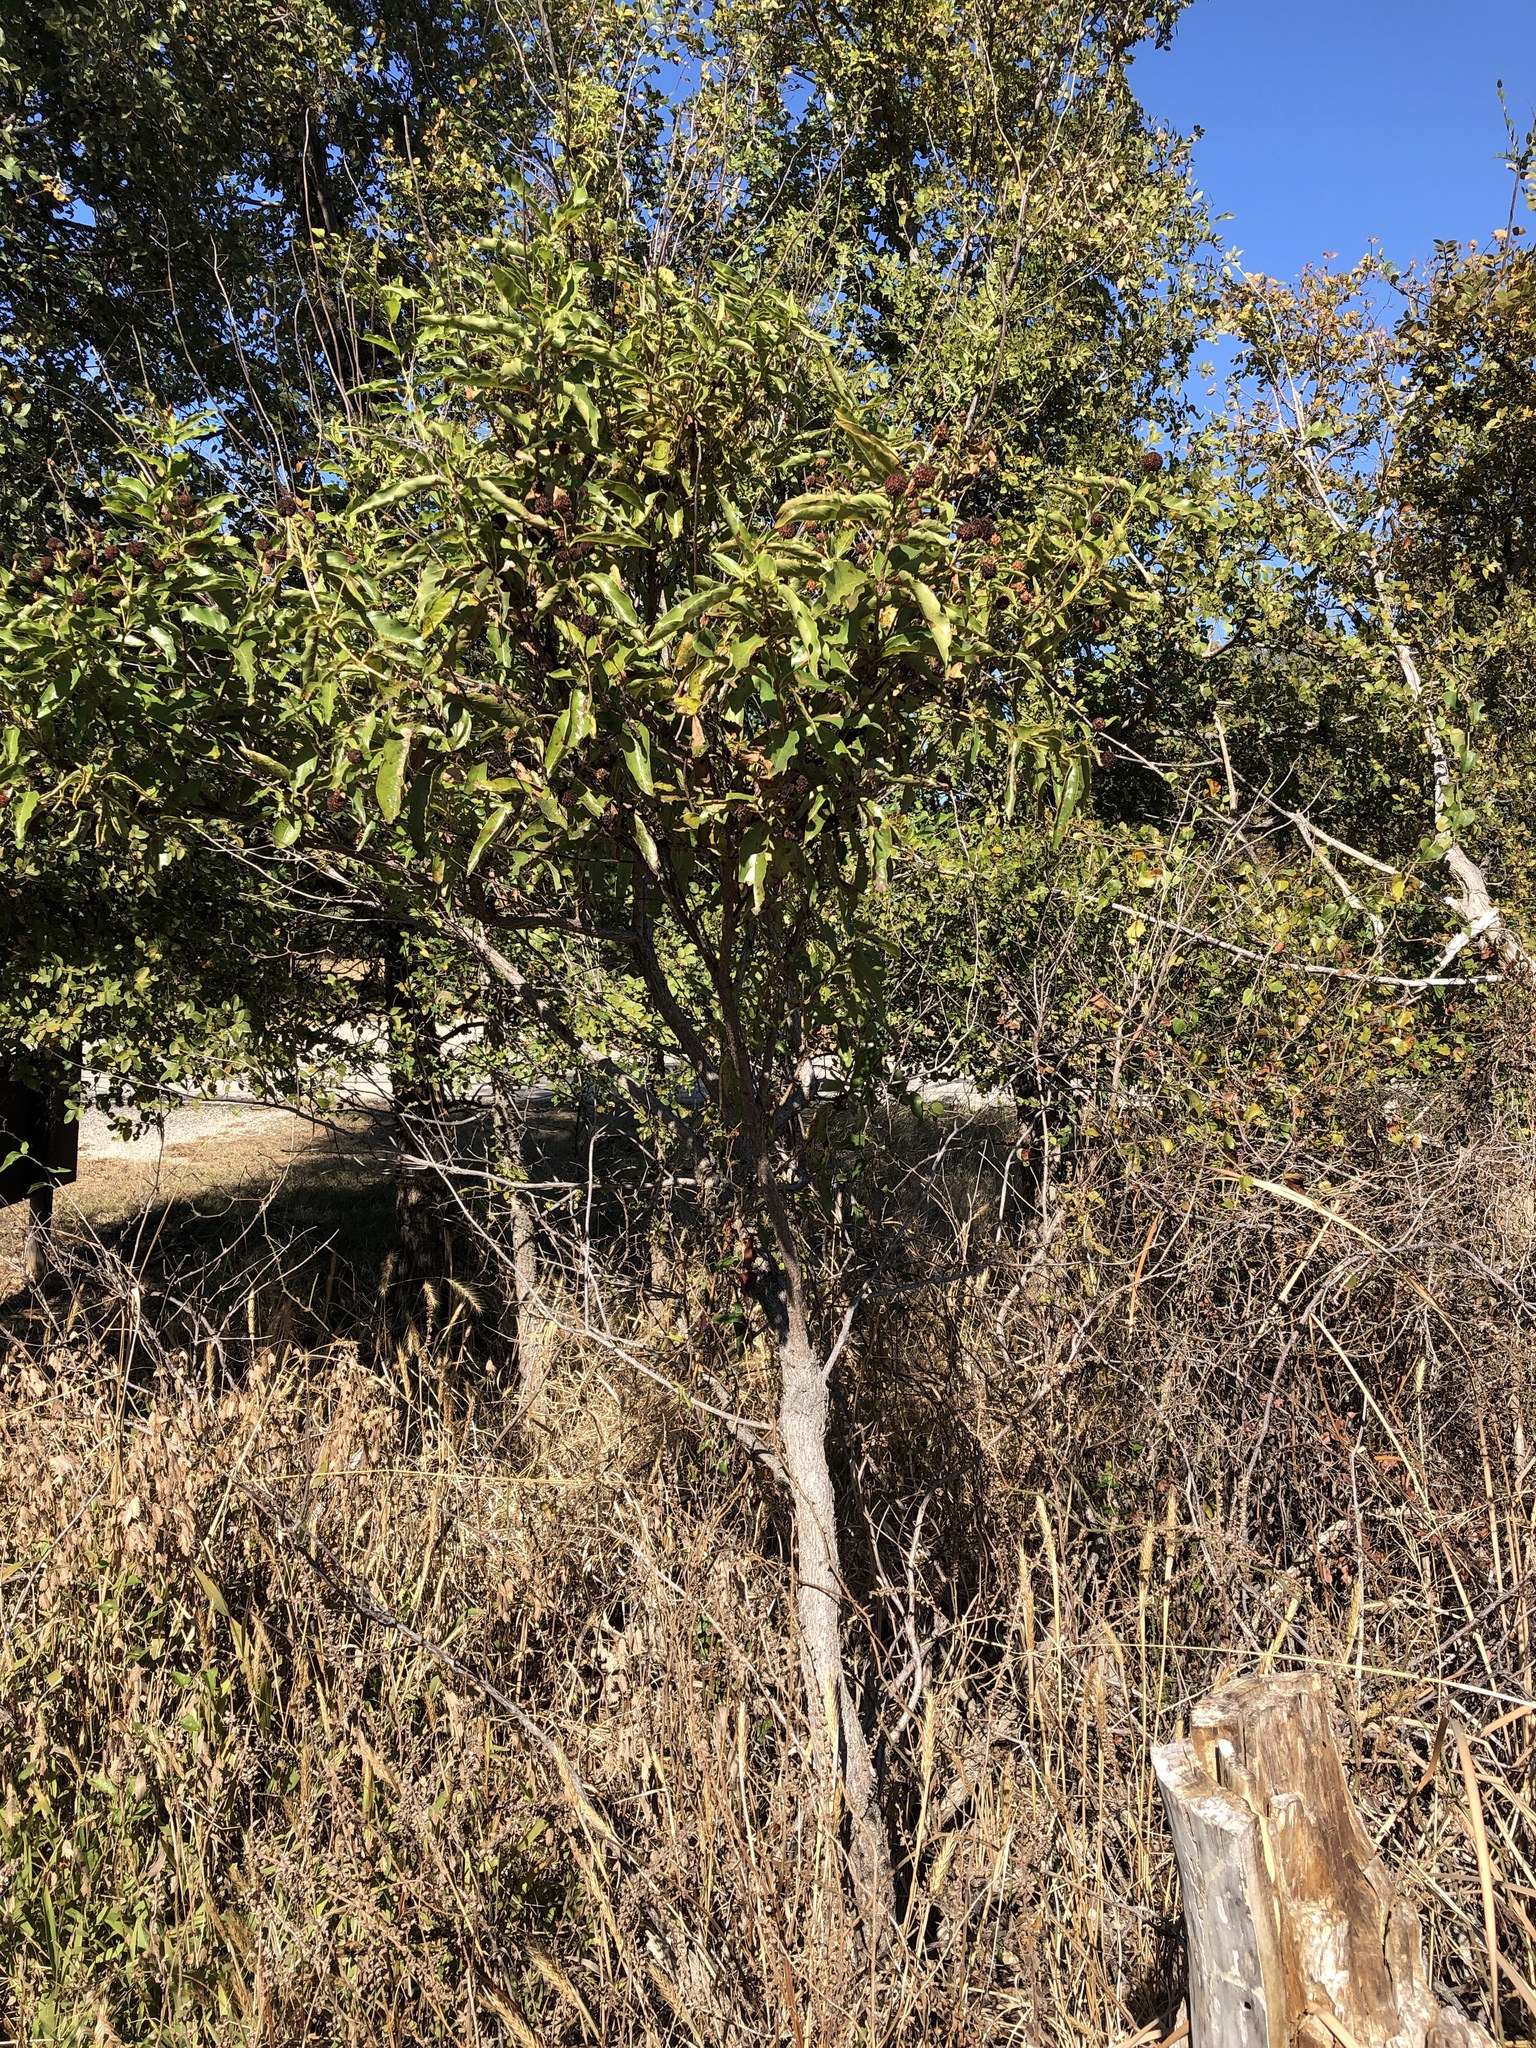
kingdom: Plantae
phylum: Tracheophyta
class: Magnoliopsida
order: Gentianales
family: Rubiaceae
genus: Cephalanthus
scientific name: Cephalanthus occidentalis
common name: Button-willow
